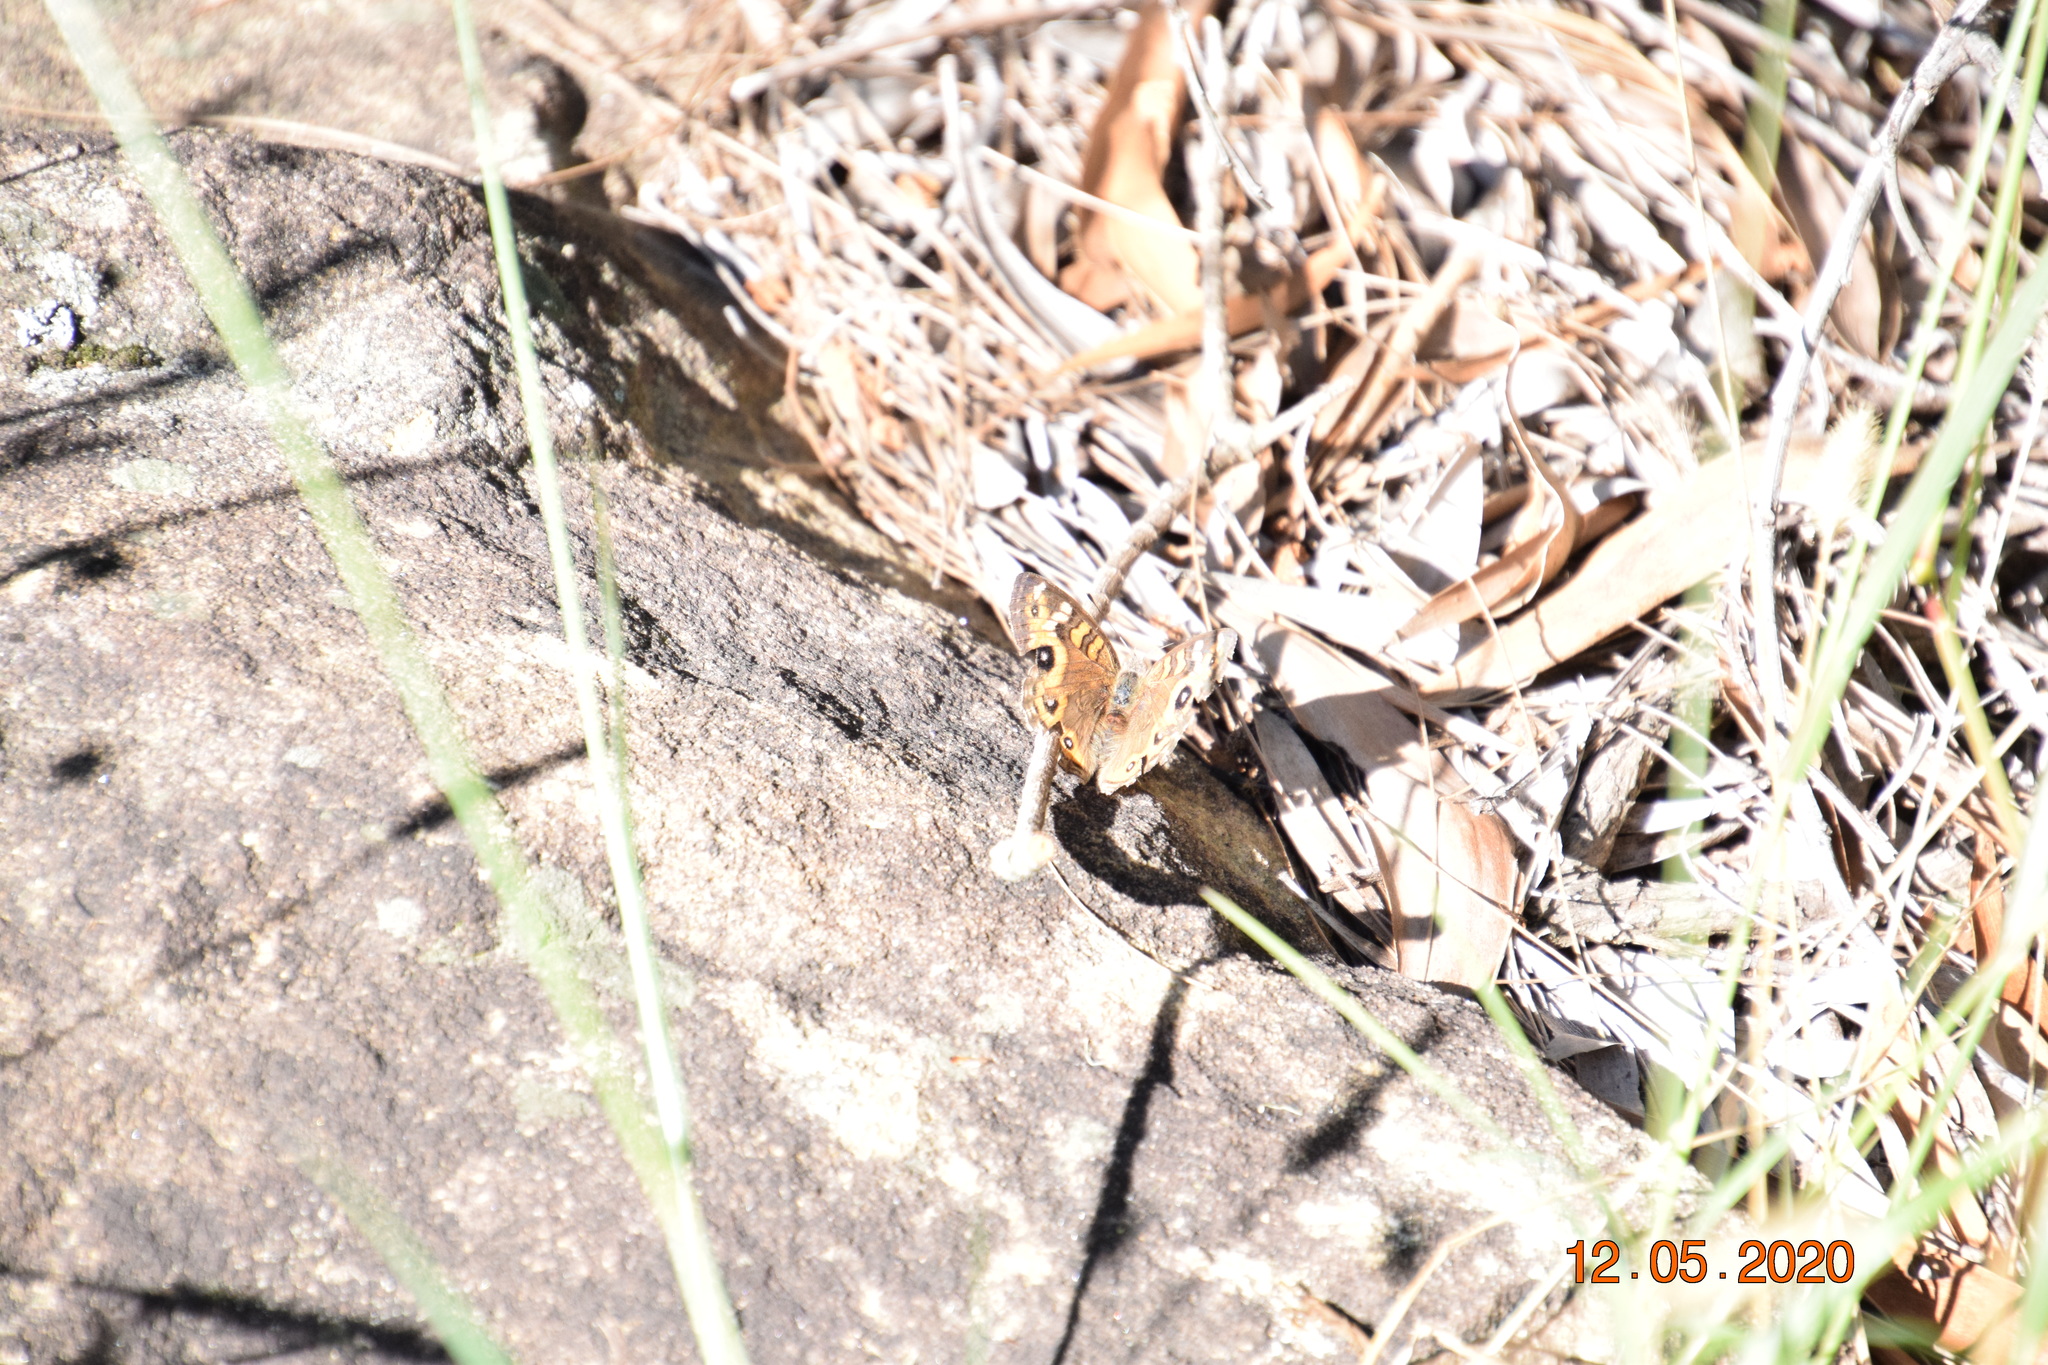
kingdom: Animalia
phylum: Arthropoda
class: Insecta
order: Lepidoptera
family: Nymphalidae
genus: Junonia
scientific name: Junonia villida
